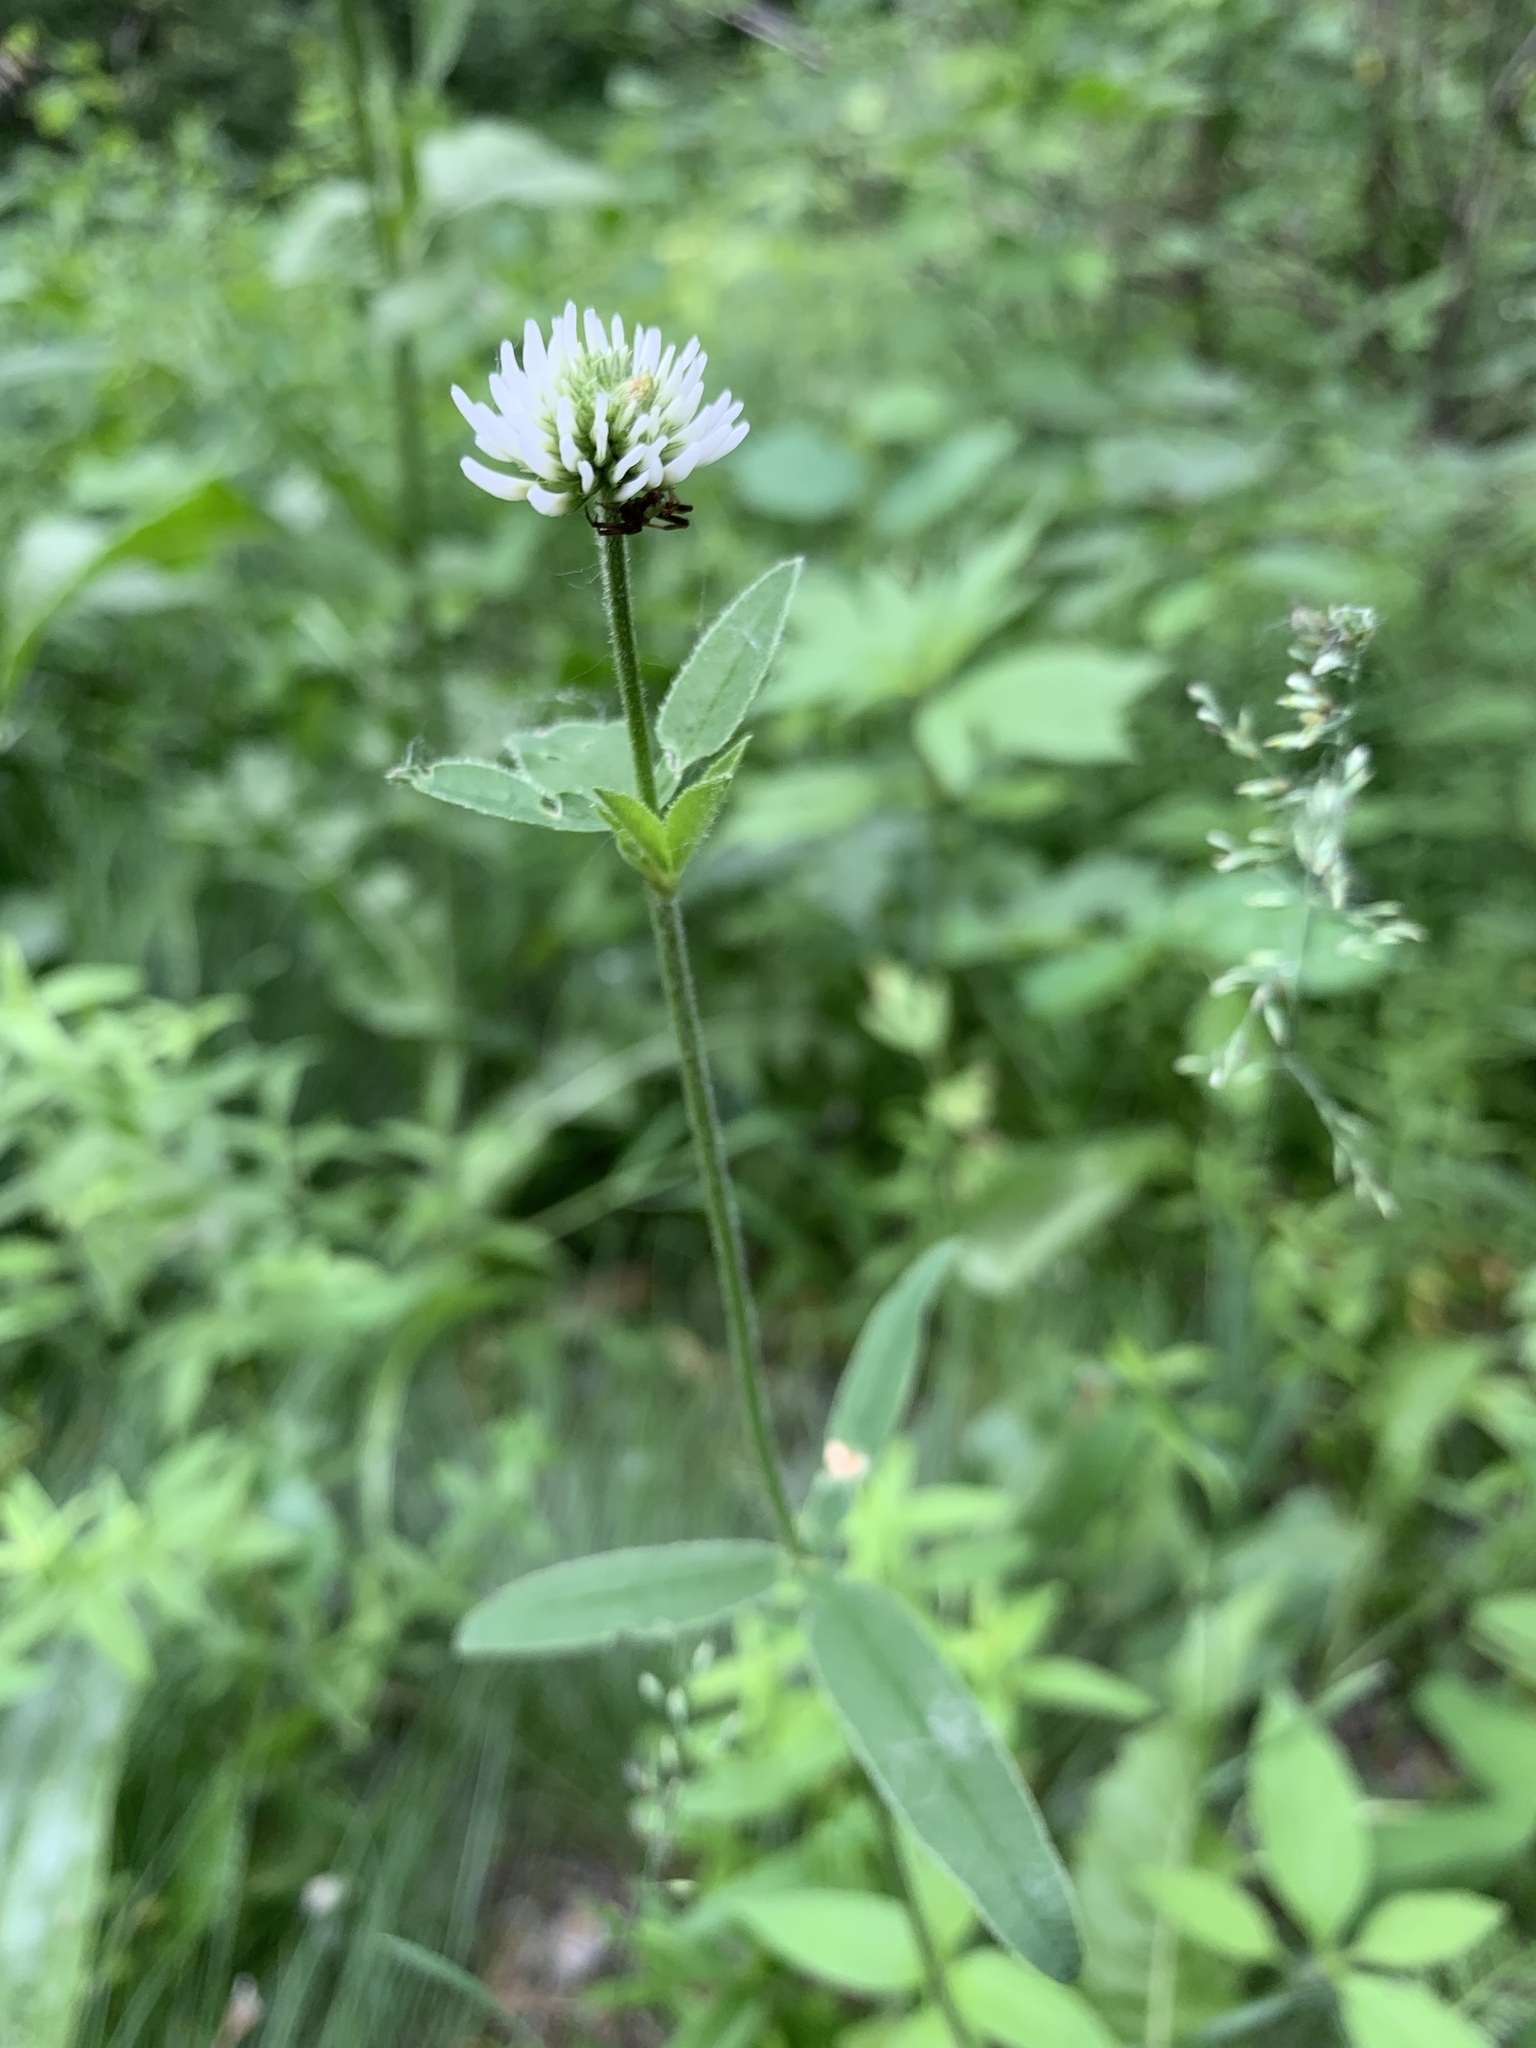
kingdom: Plantae
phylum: Tracheophyta
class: Magnoliopsida
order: Fabales
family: Fabaceae
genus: Trifolium
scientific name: Trifolium montanum
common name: Mountain clover
